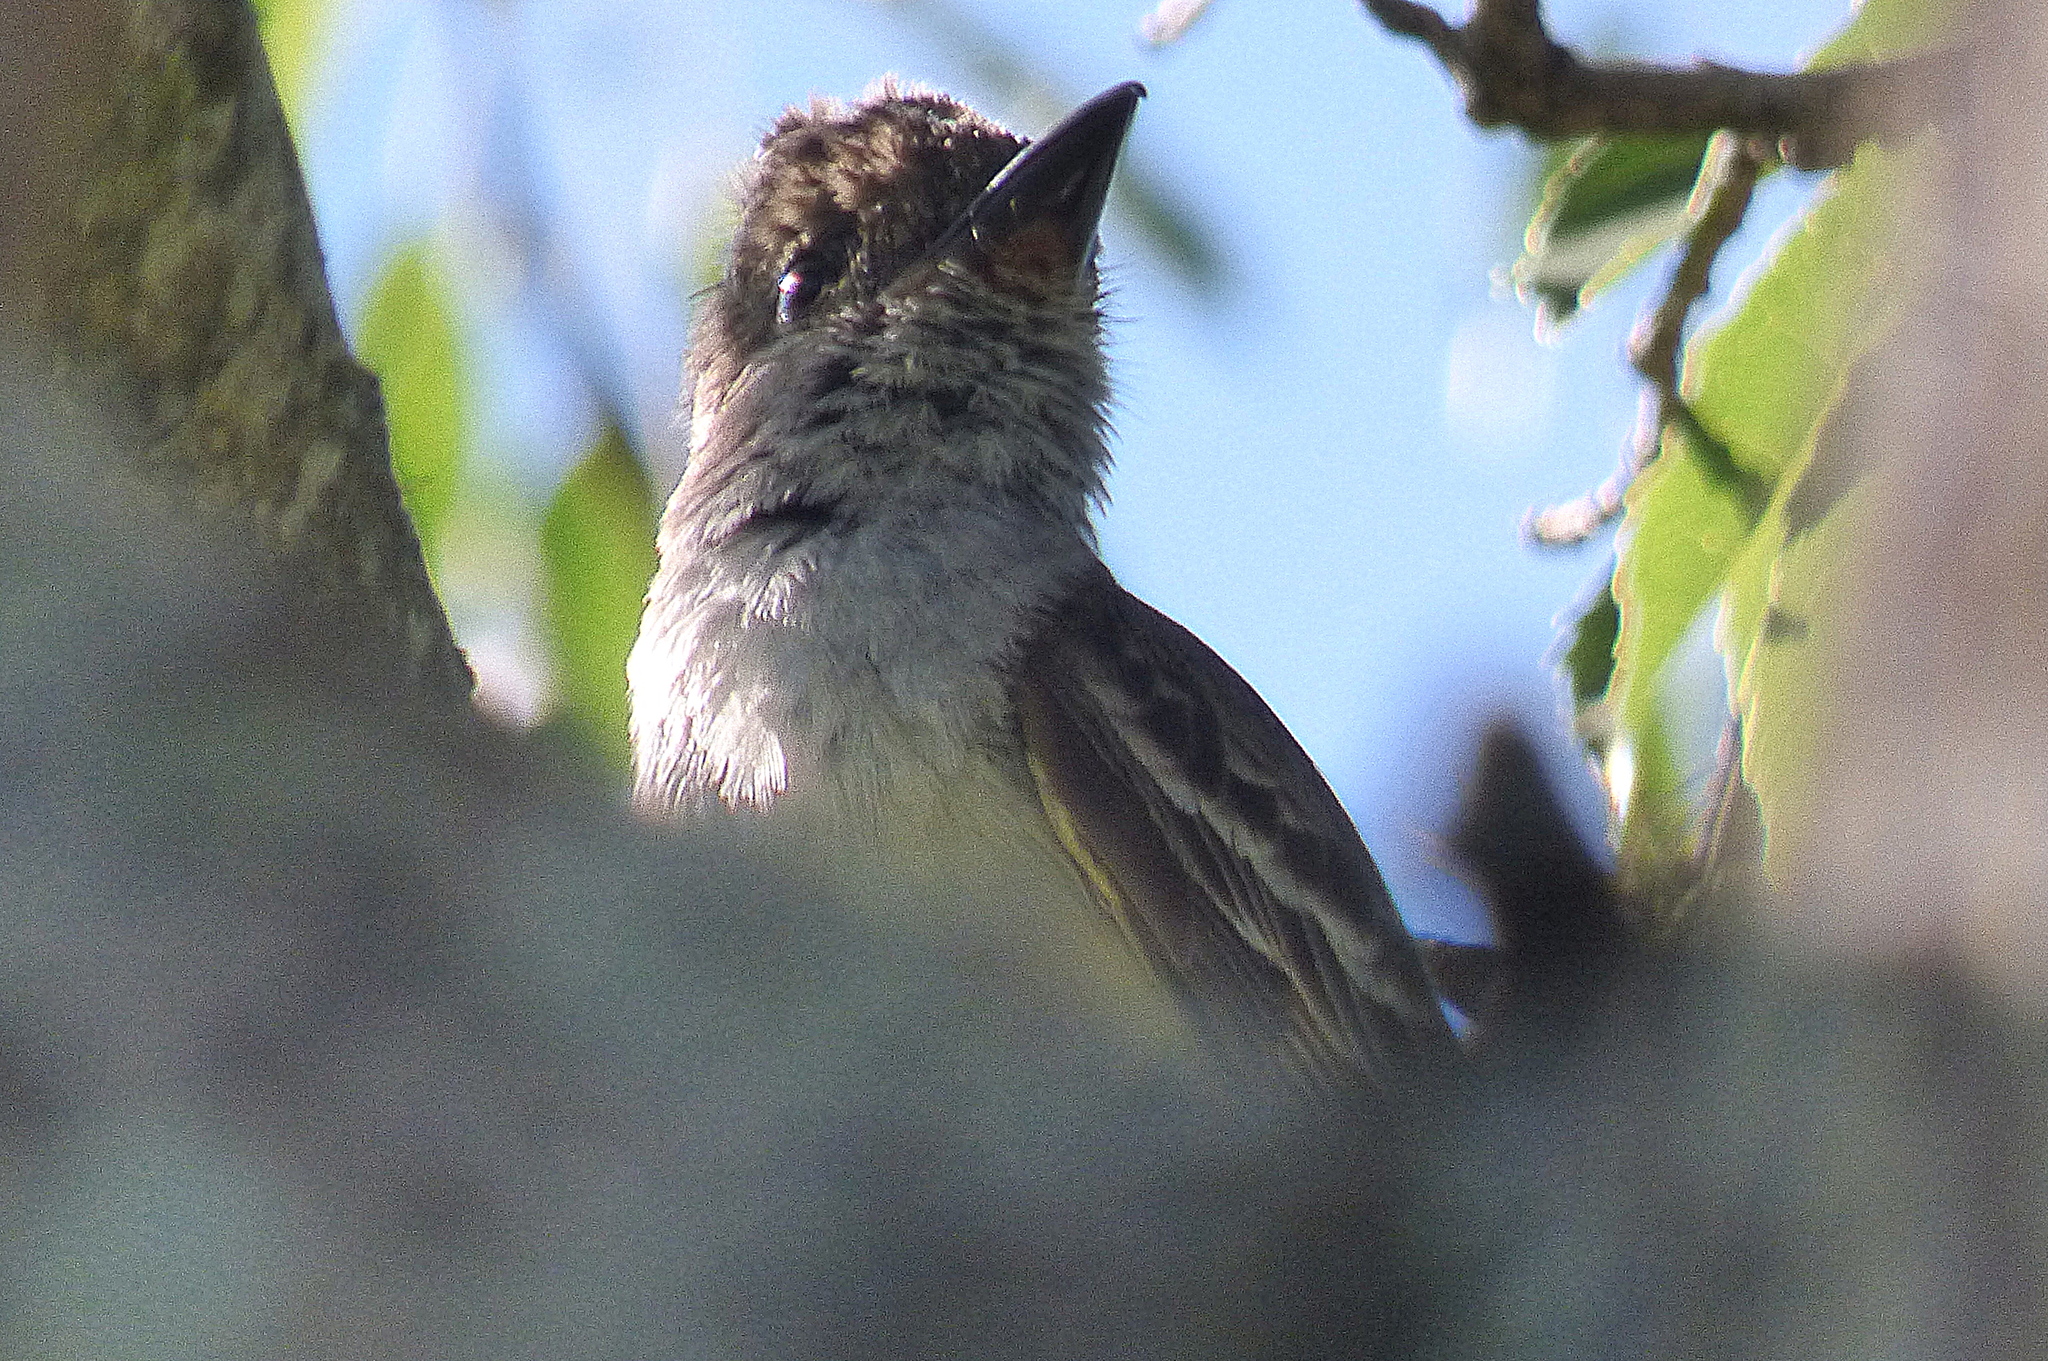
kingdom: Animalia
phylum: Chordata
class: Aves
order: Passeriformes
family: Tyrannidae
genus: Myiarchus
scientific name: Myiarchus ferox
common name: Short-crested flycatcher
